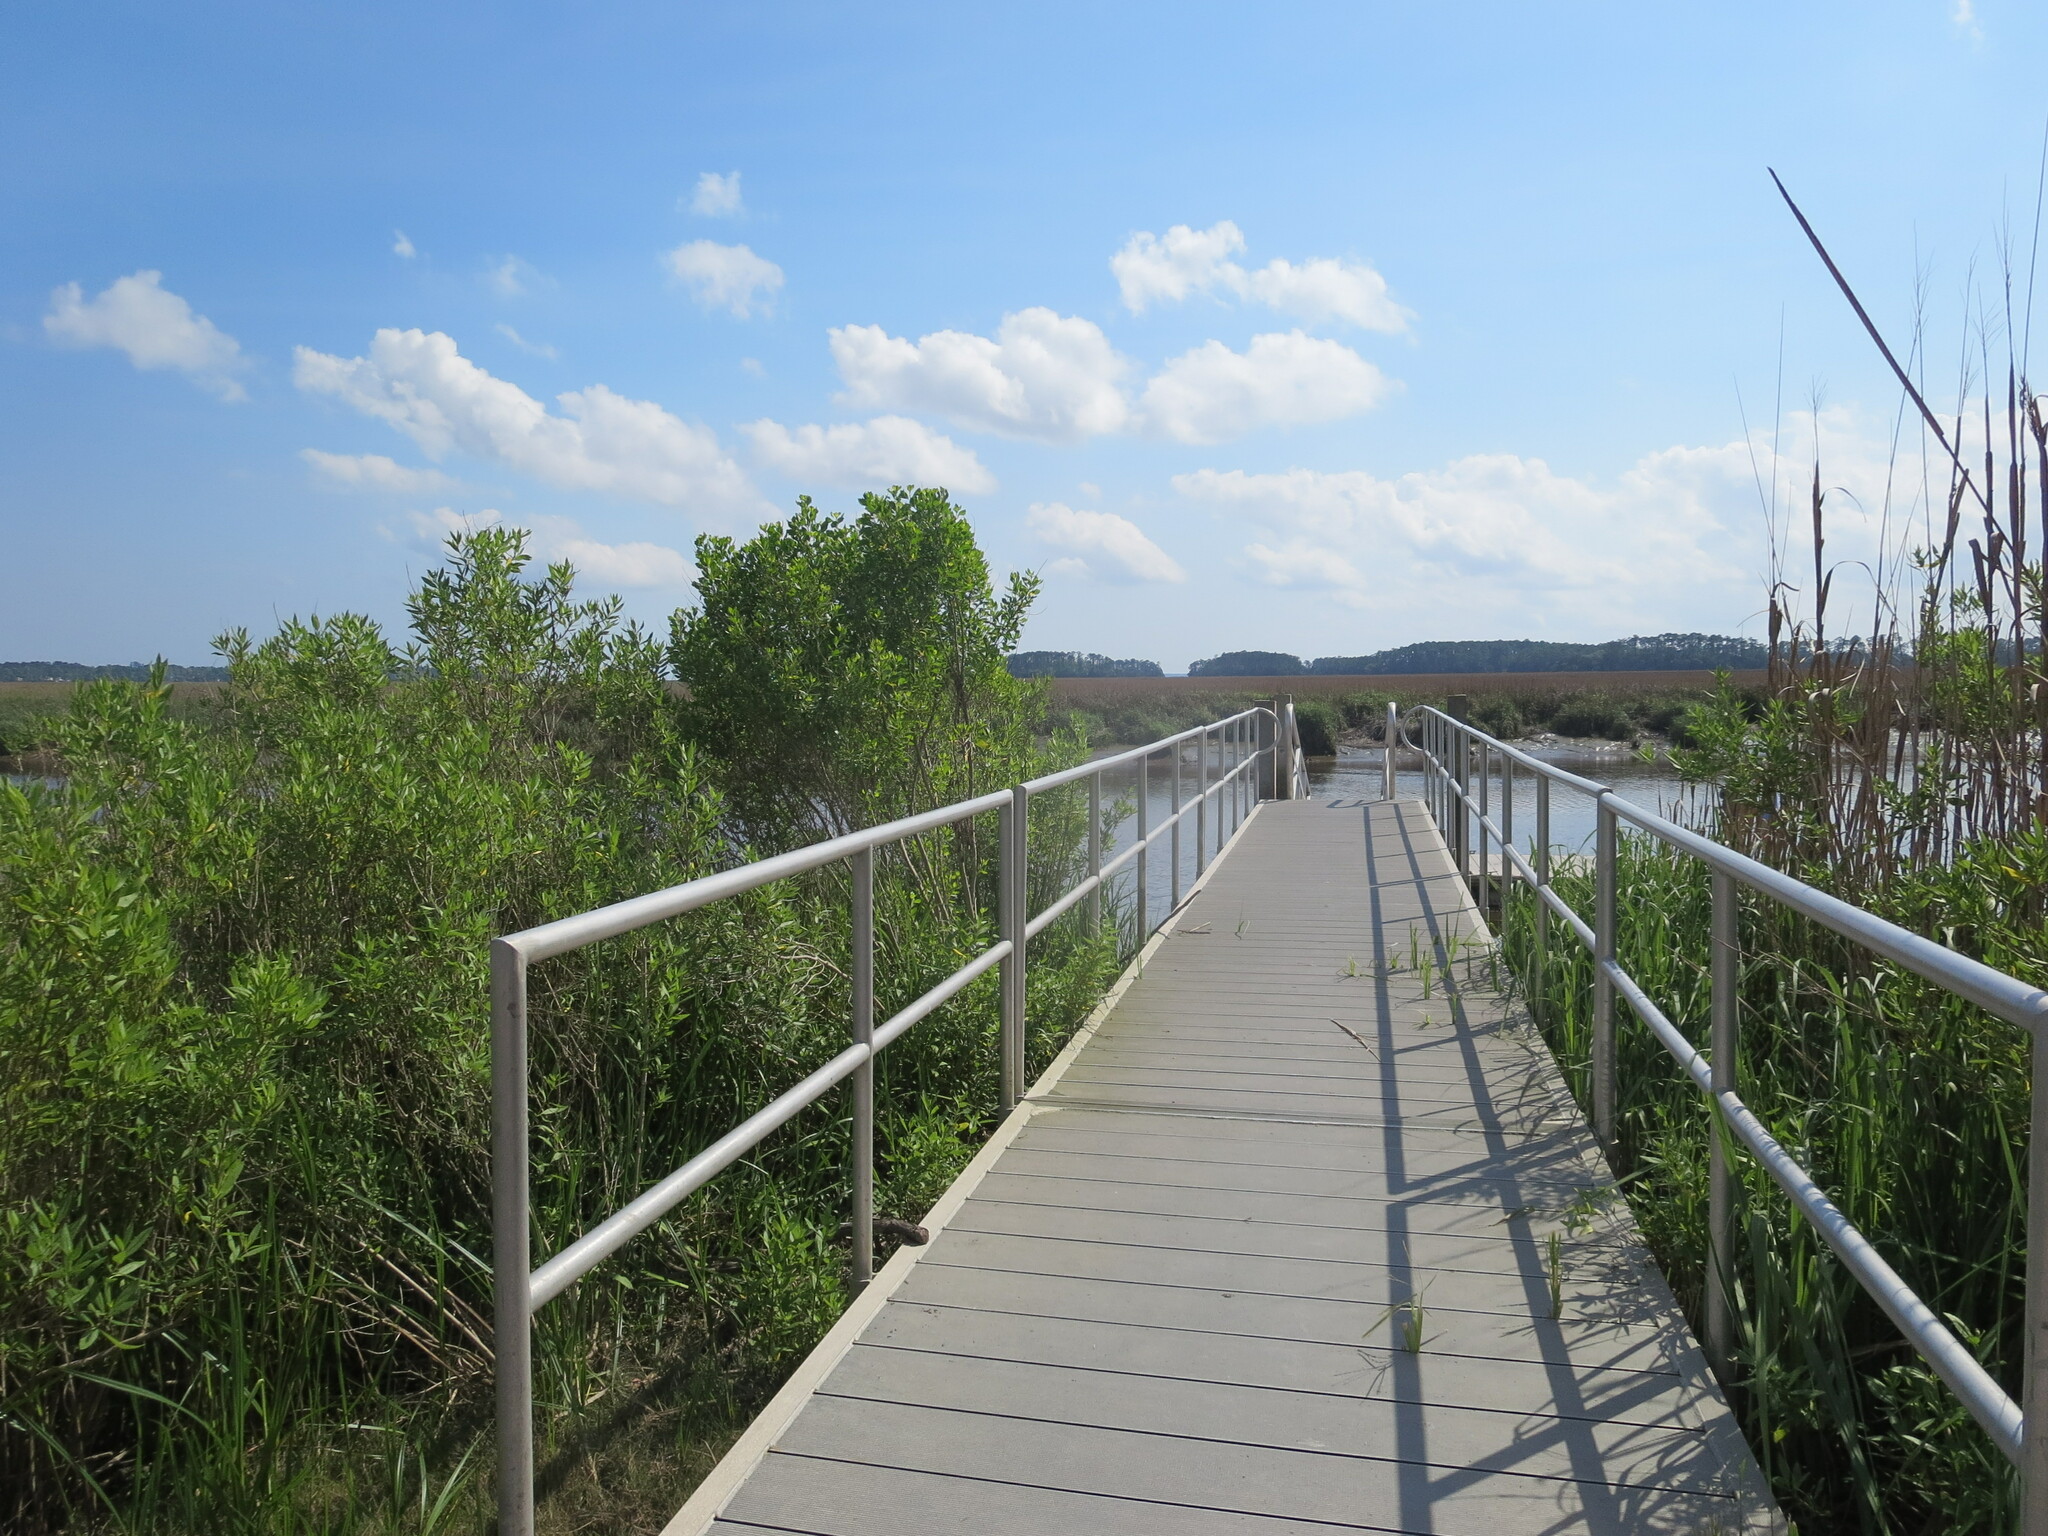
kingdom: Plantae
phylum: Tracheophyta
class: Magnoliopsida
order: Asterales
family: Asteraceae
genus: Baccharis
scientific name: Baccharis halimifolia
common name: Eastern baccharis
